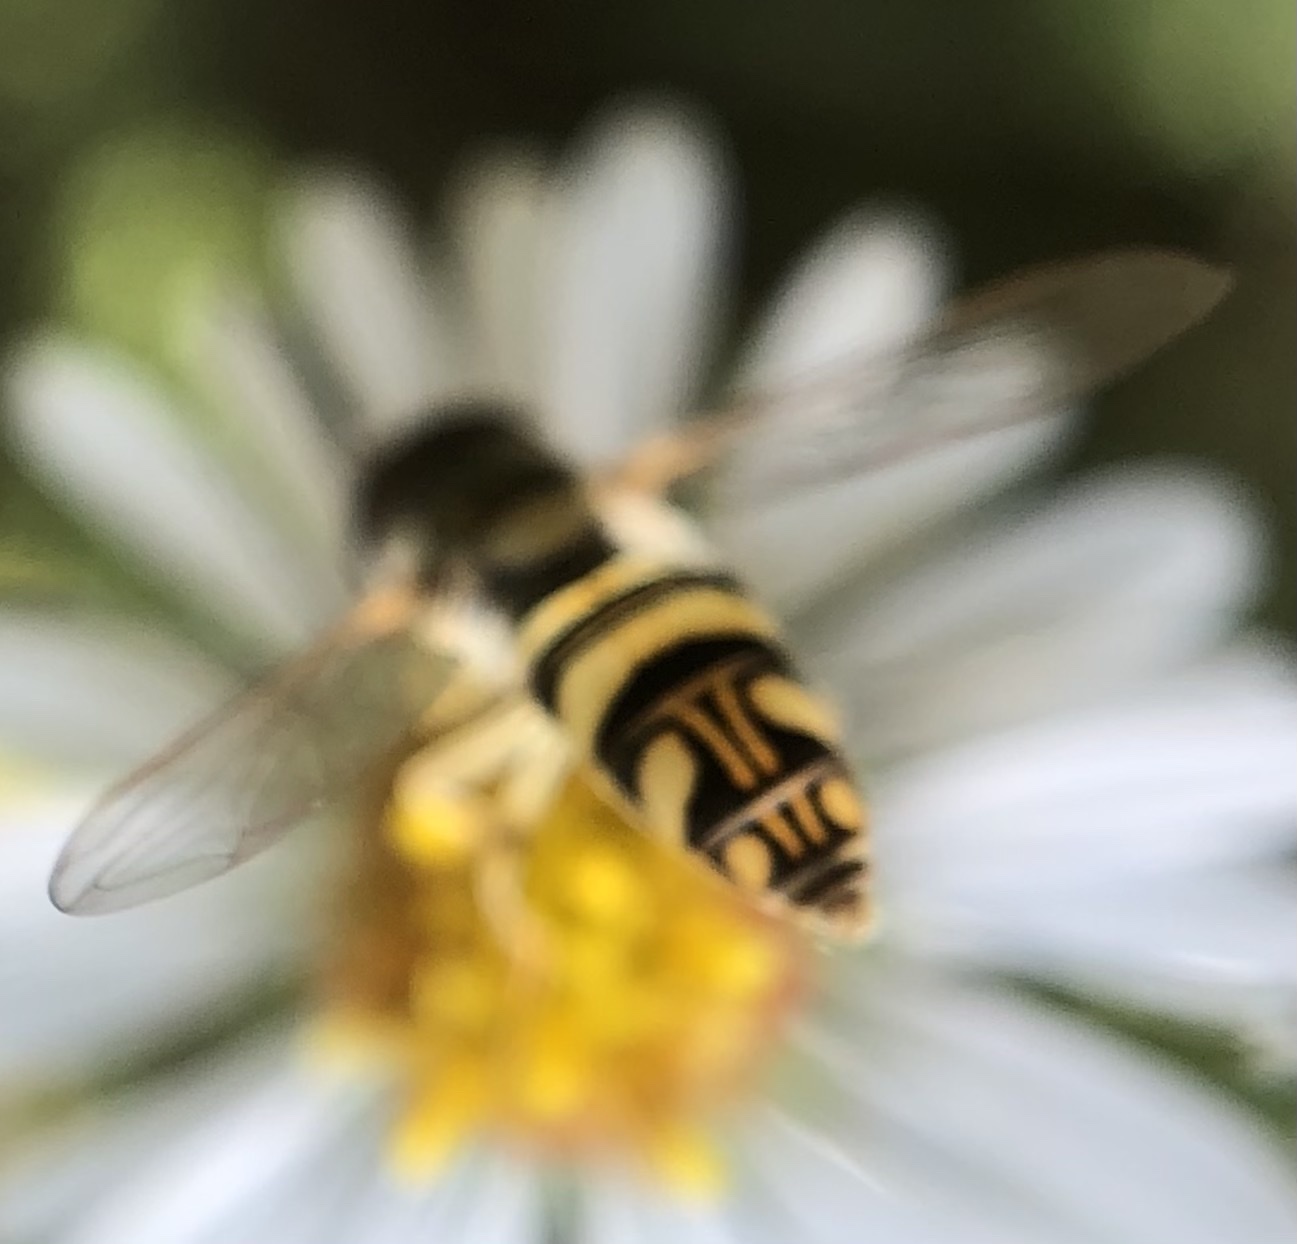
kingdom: Animalia
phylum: Arthropoda
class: Insecta
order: Diptera
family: Syrphidae
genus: Allograpta
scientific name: Allograpta exotica
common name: Syrphid fly
